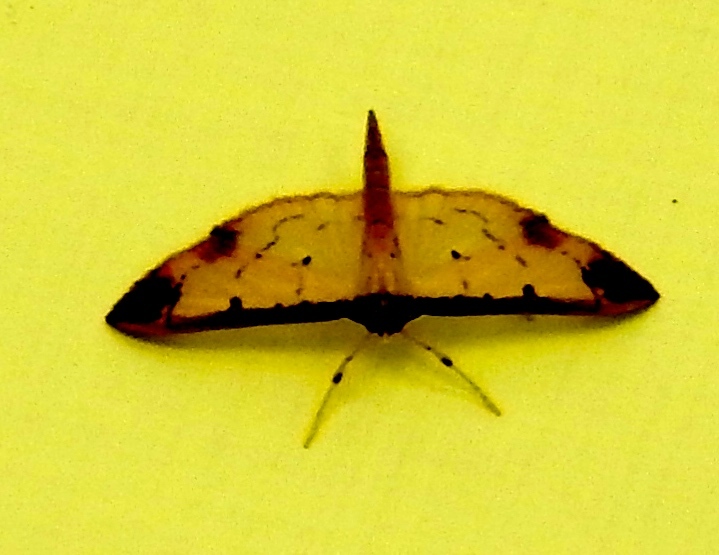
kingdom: Animalia
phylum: Arthropoda
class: Insecta
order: Lepidoptera
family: Crambidae
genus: Eulepte
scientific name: Eulepte gastralis
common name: Leaf skeletonizing crambid moth
